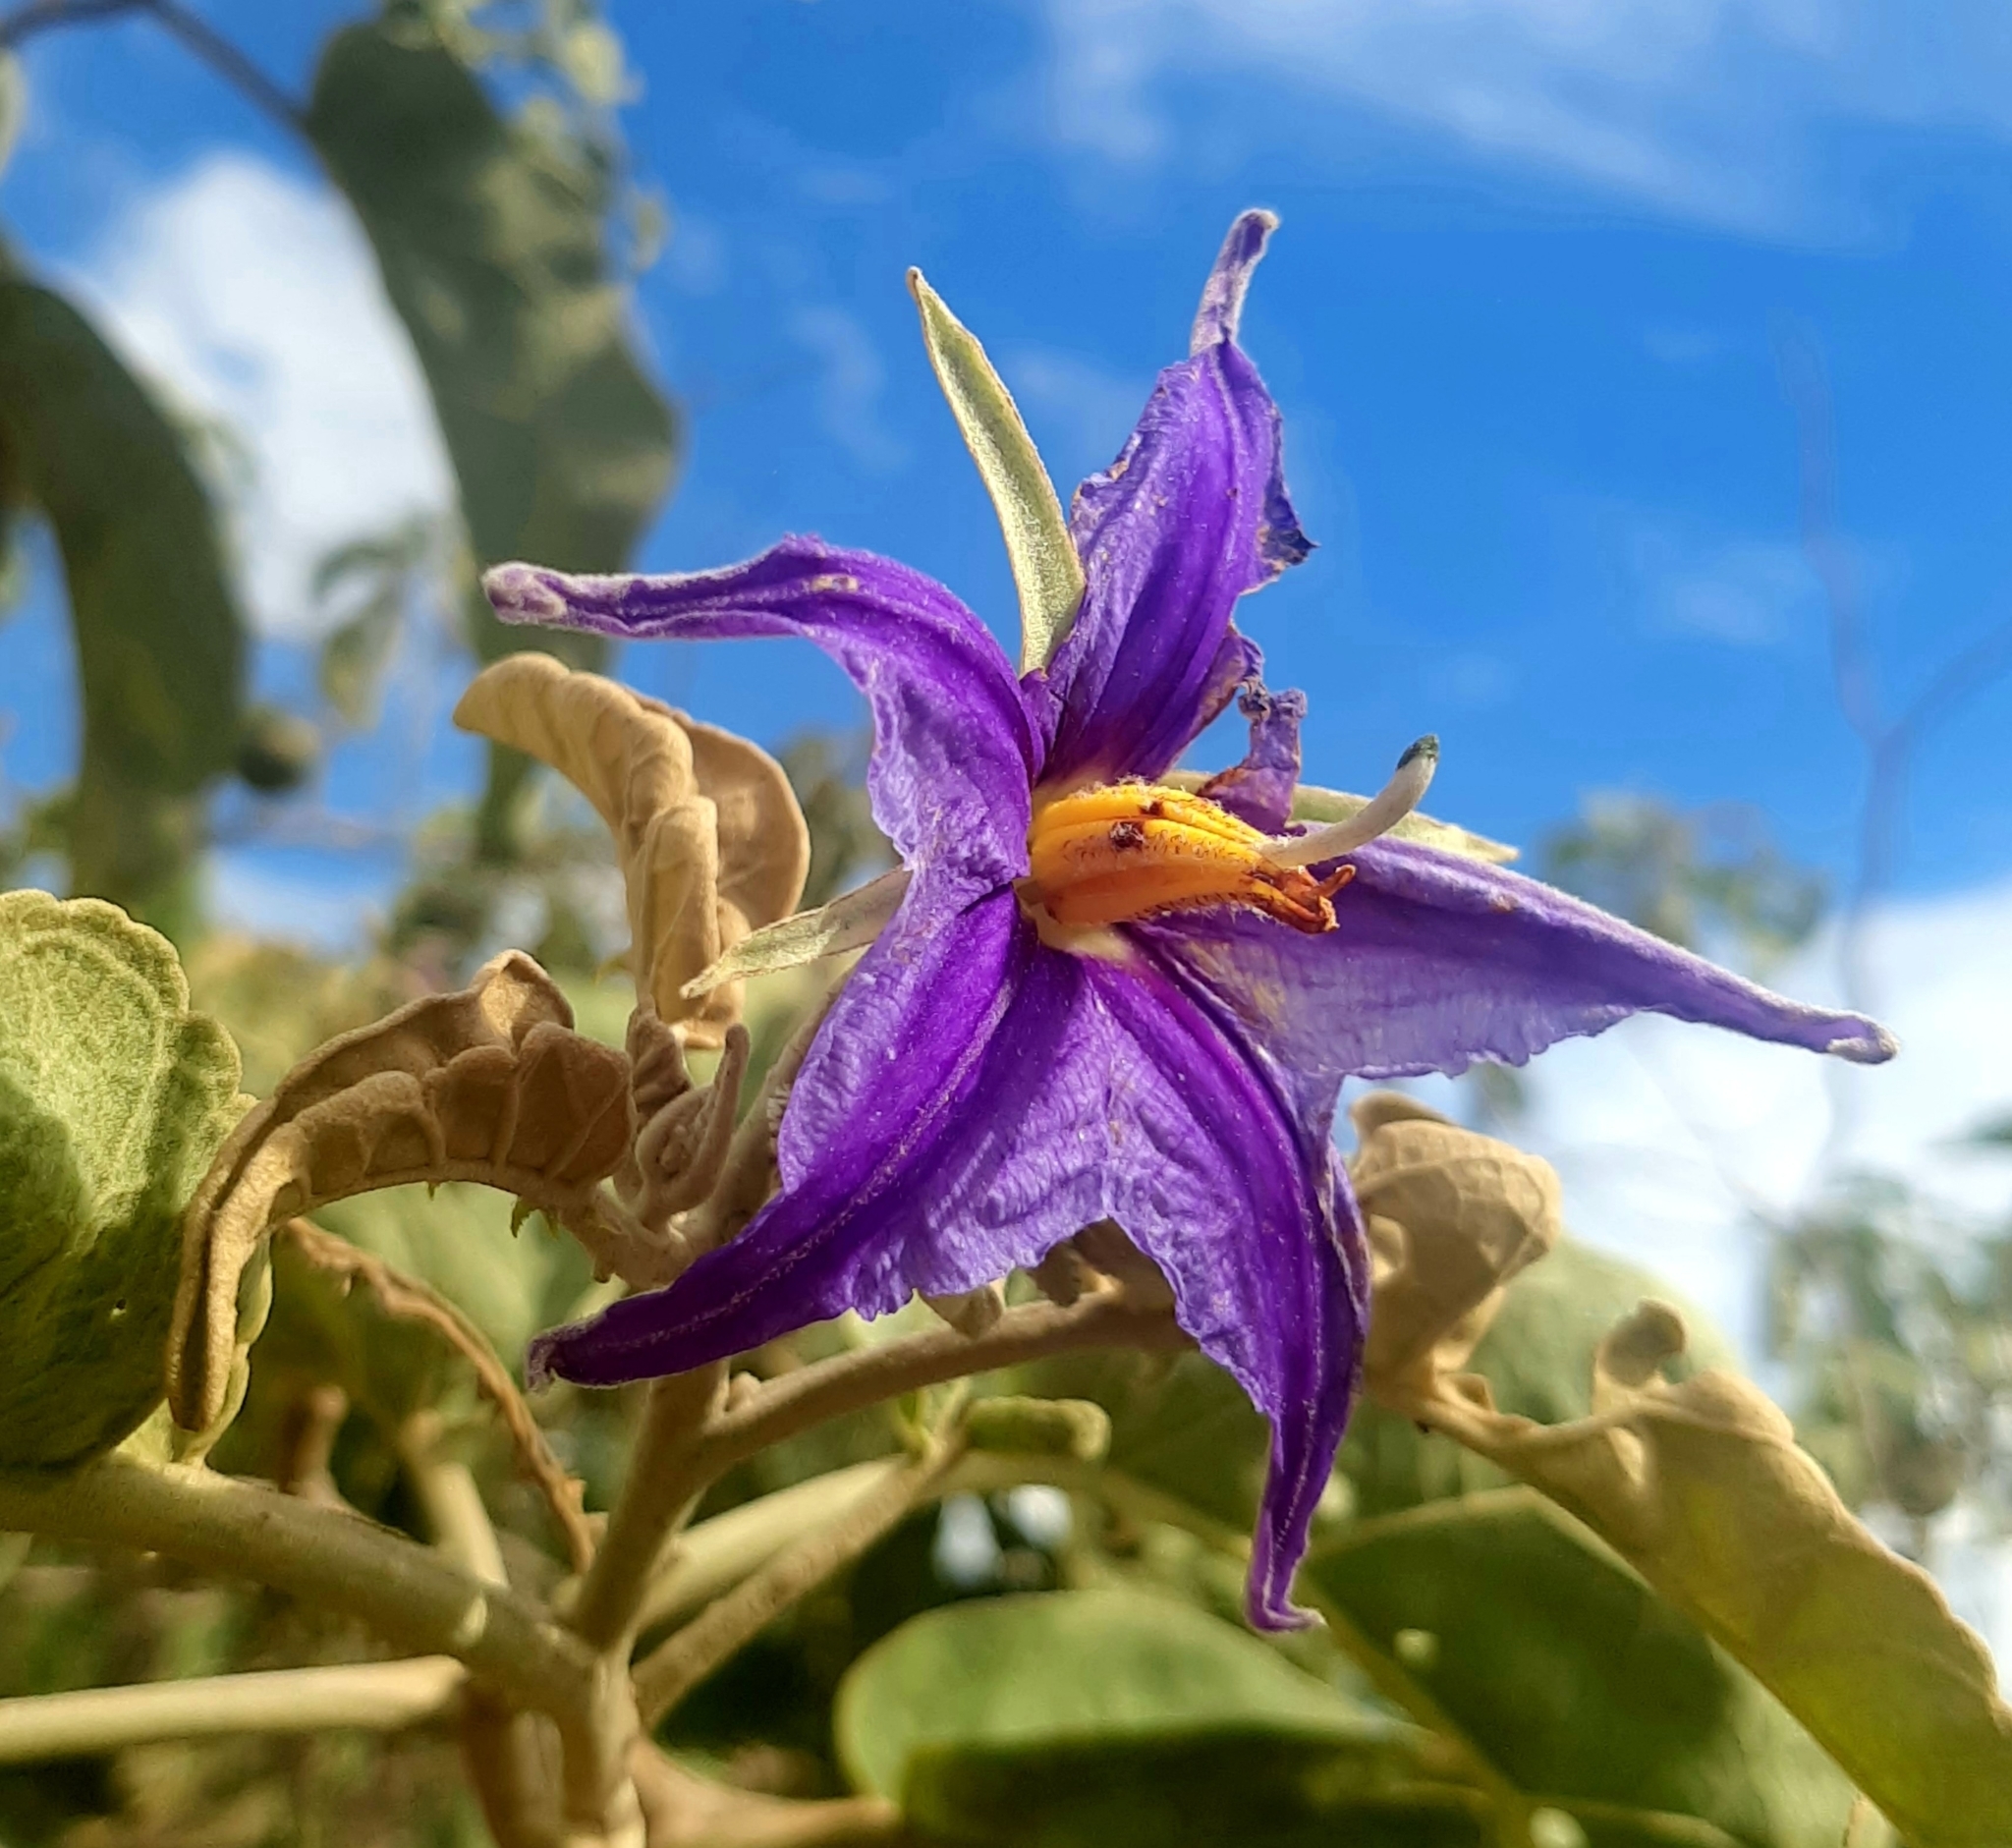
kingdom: Plantae
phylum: Tracheophyta
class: Magnoliopsida
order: Solanales
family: Solanaceae
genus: Solanum
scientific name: Solanum lycocarpum
